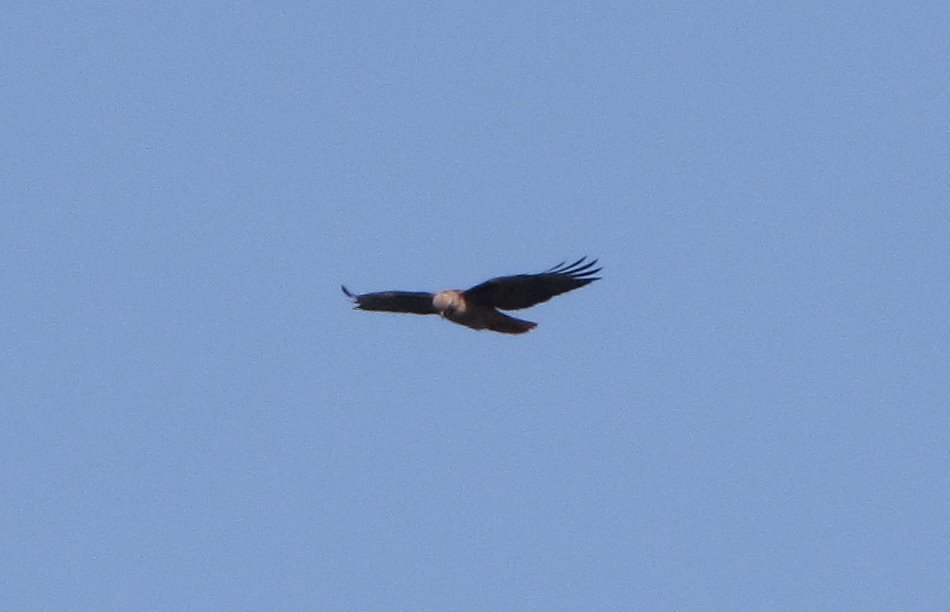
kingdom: Animalia
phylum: Chordata
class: Aves
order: Accipitriformes
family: Accipitridae
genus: Buteo
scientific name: Buteo jamaicensis
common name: Red-tailed hawk
